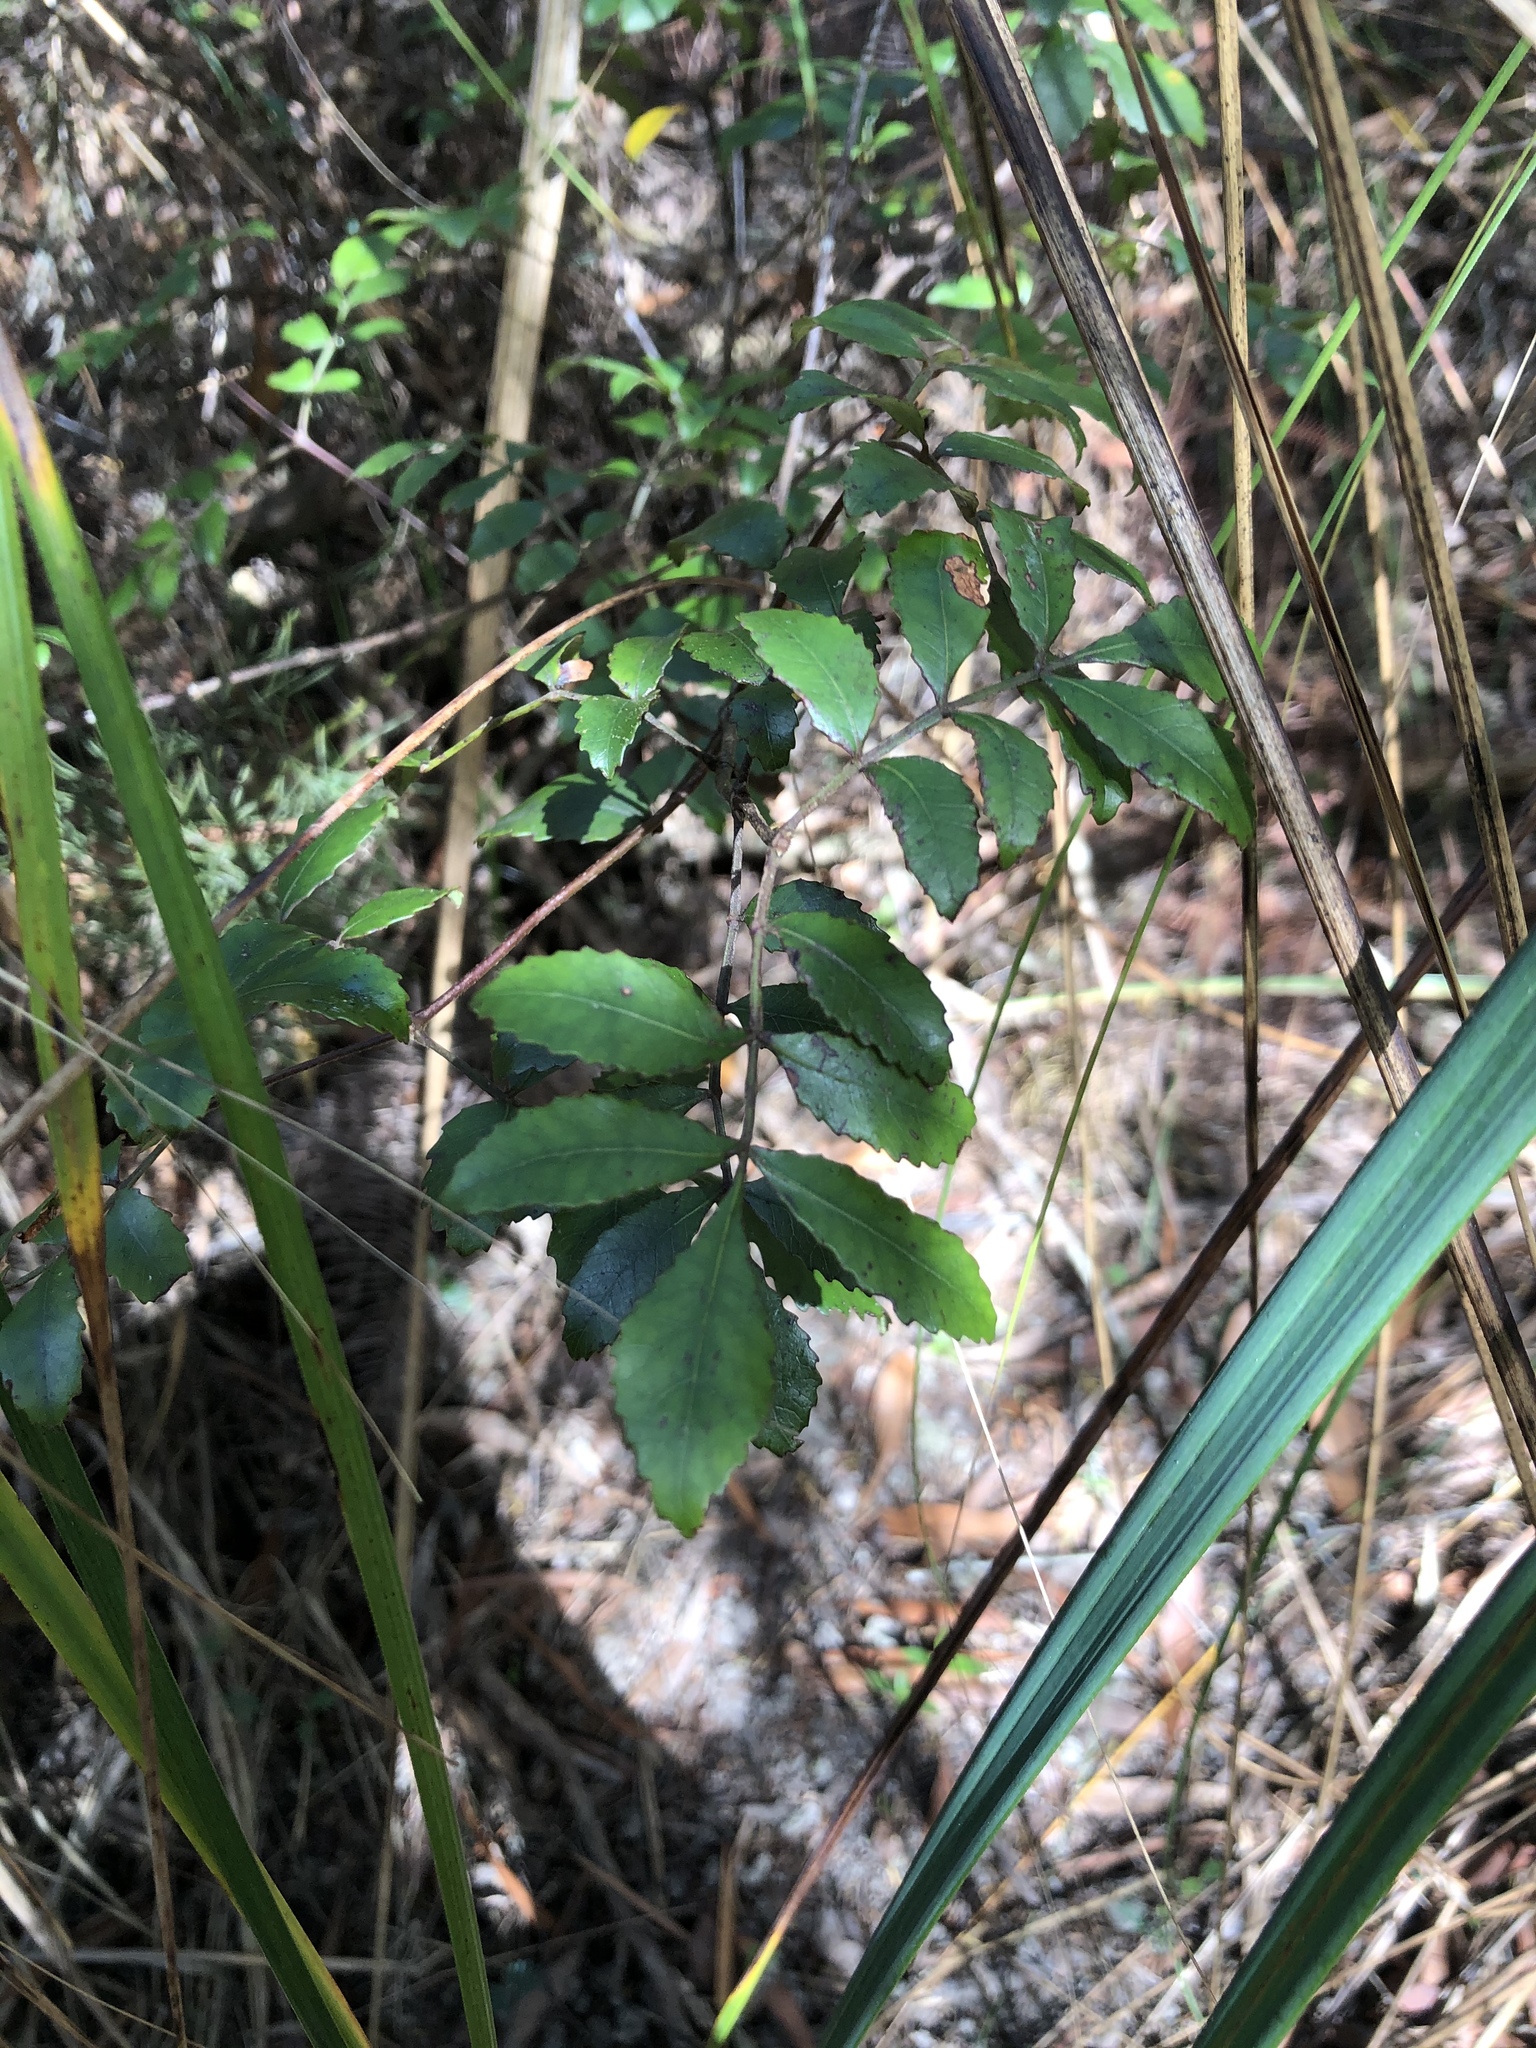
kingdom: Plantae
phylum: Tracheophyta
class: Magnoliopsida
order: Oxalidales
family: Cunoniaceae
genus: Pterophylla
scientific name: Pterophylla sylvicola
